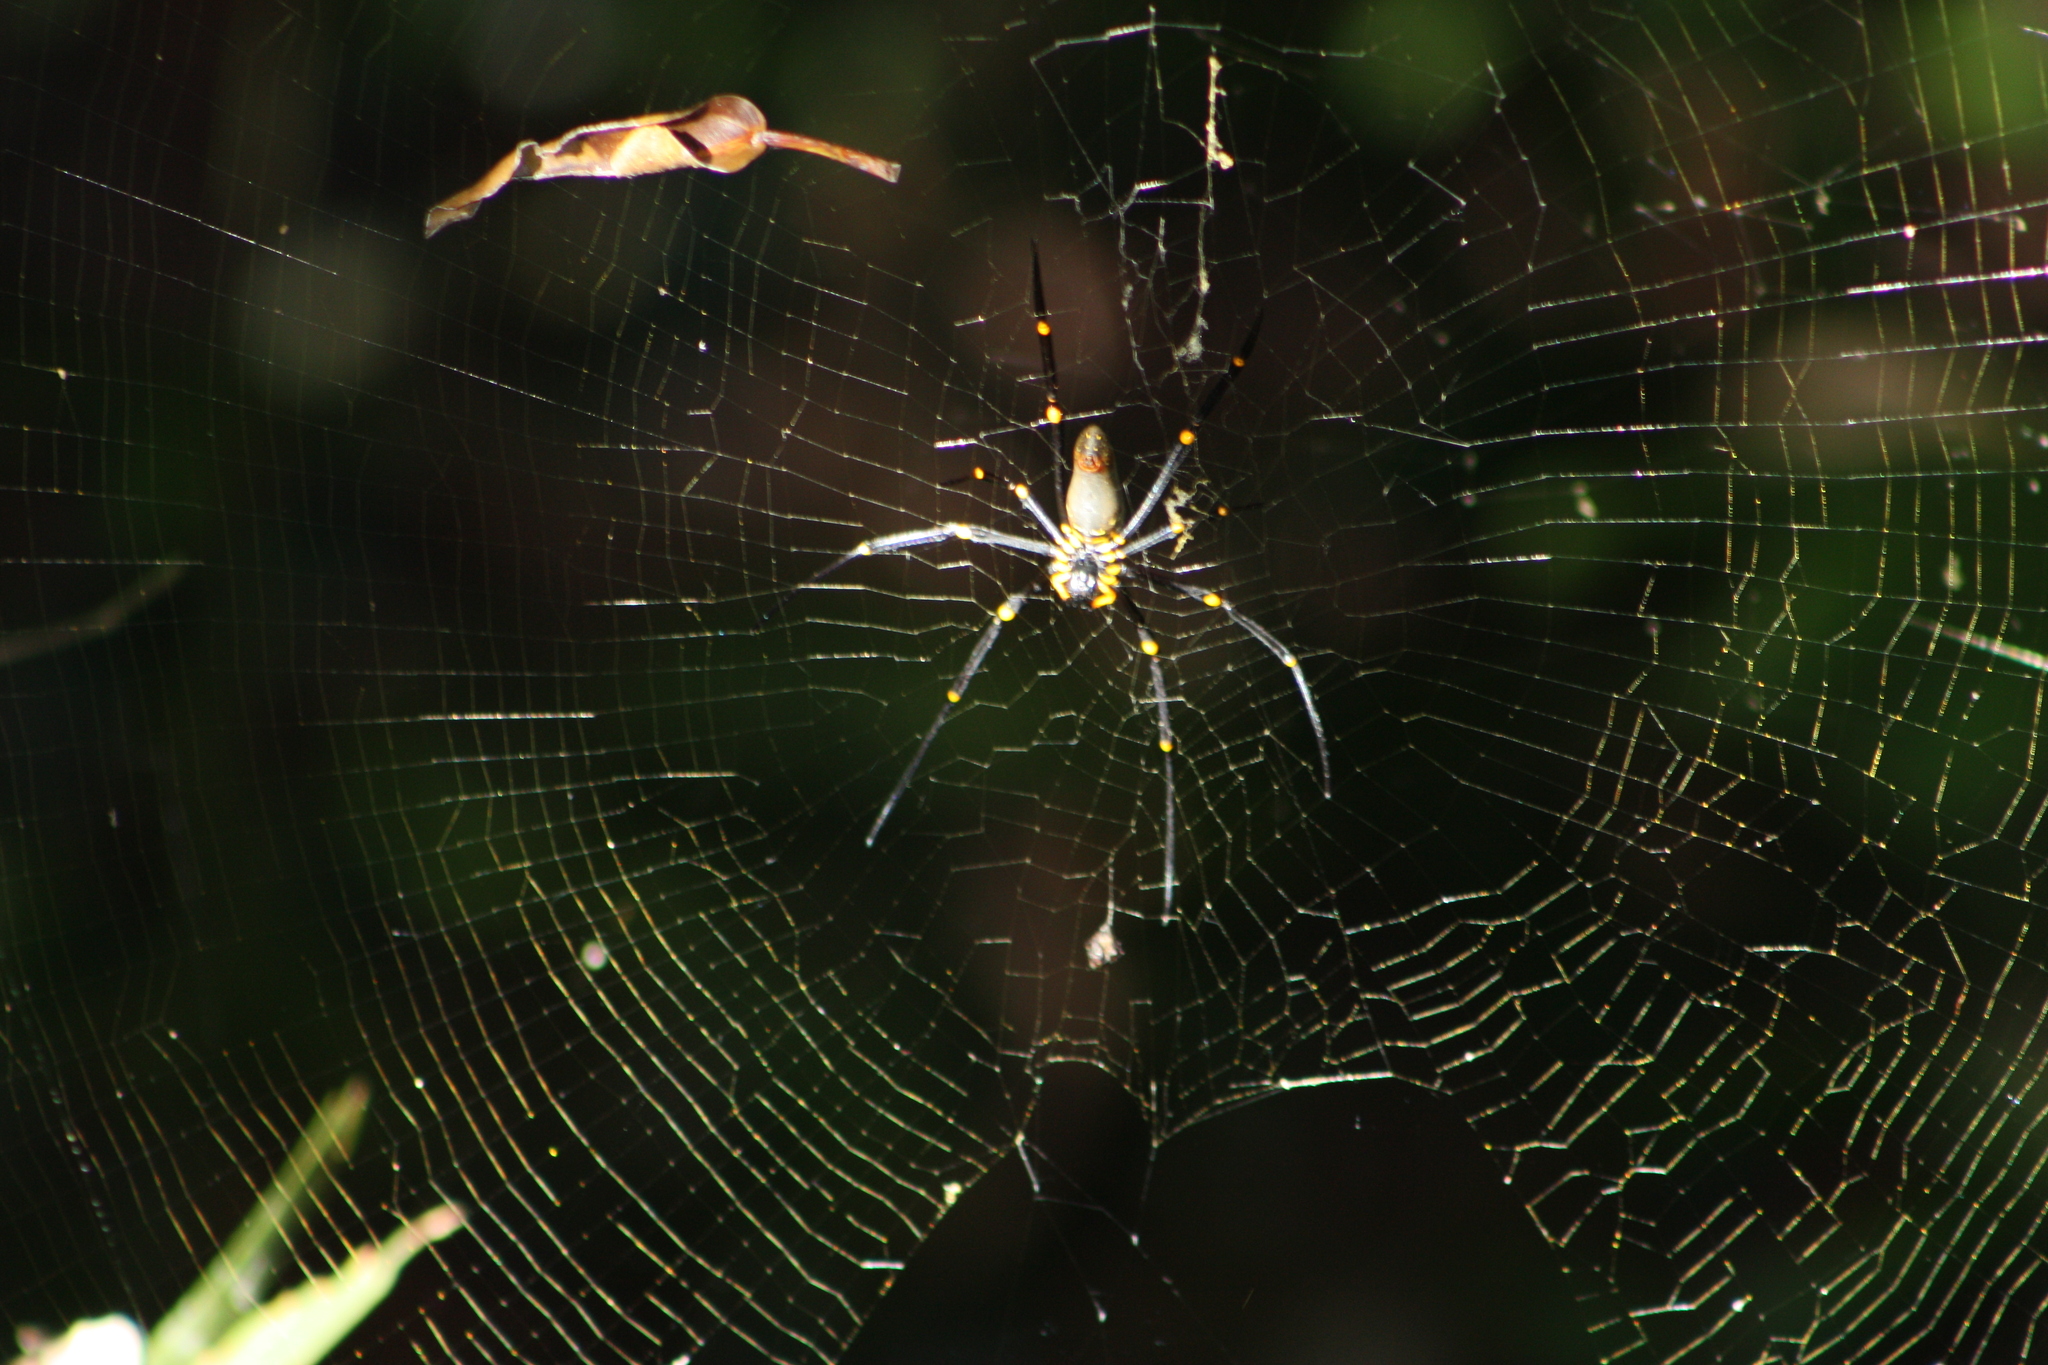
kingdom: Animalia
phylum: Arthropoda
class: Arachnida
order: Araneae
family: Araneidae
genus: Nephila
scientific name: Nephila pilipes
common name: Giant golden orb weaver
